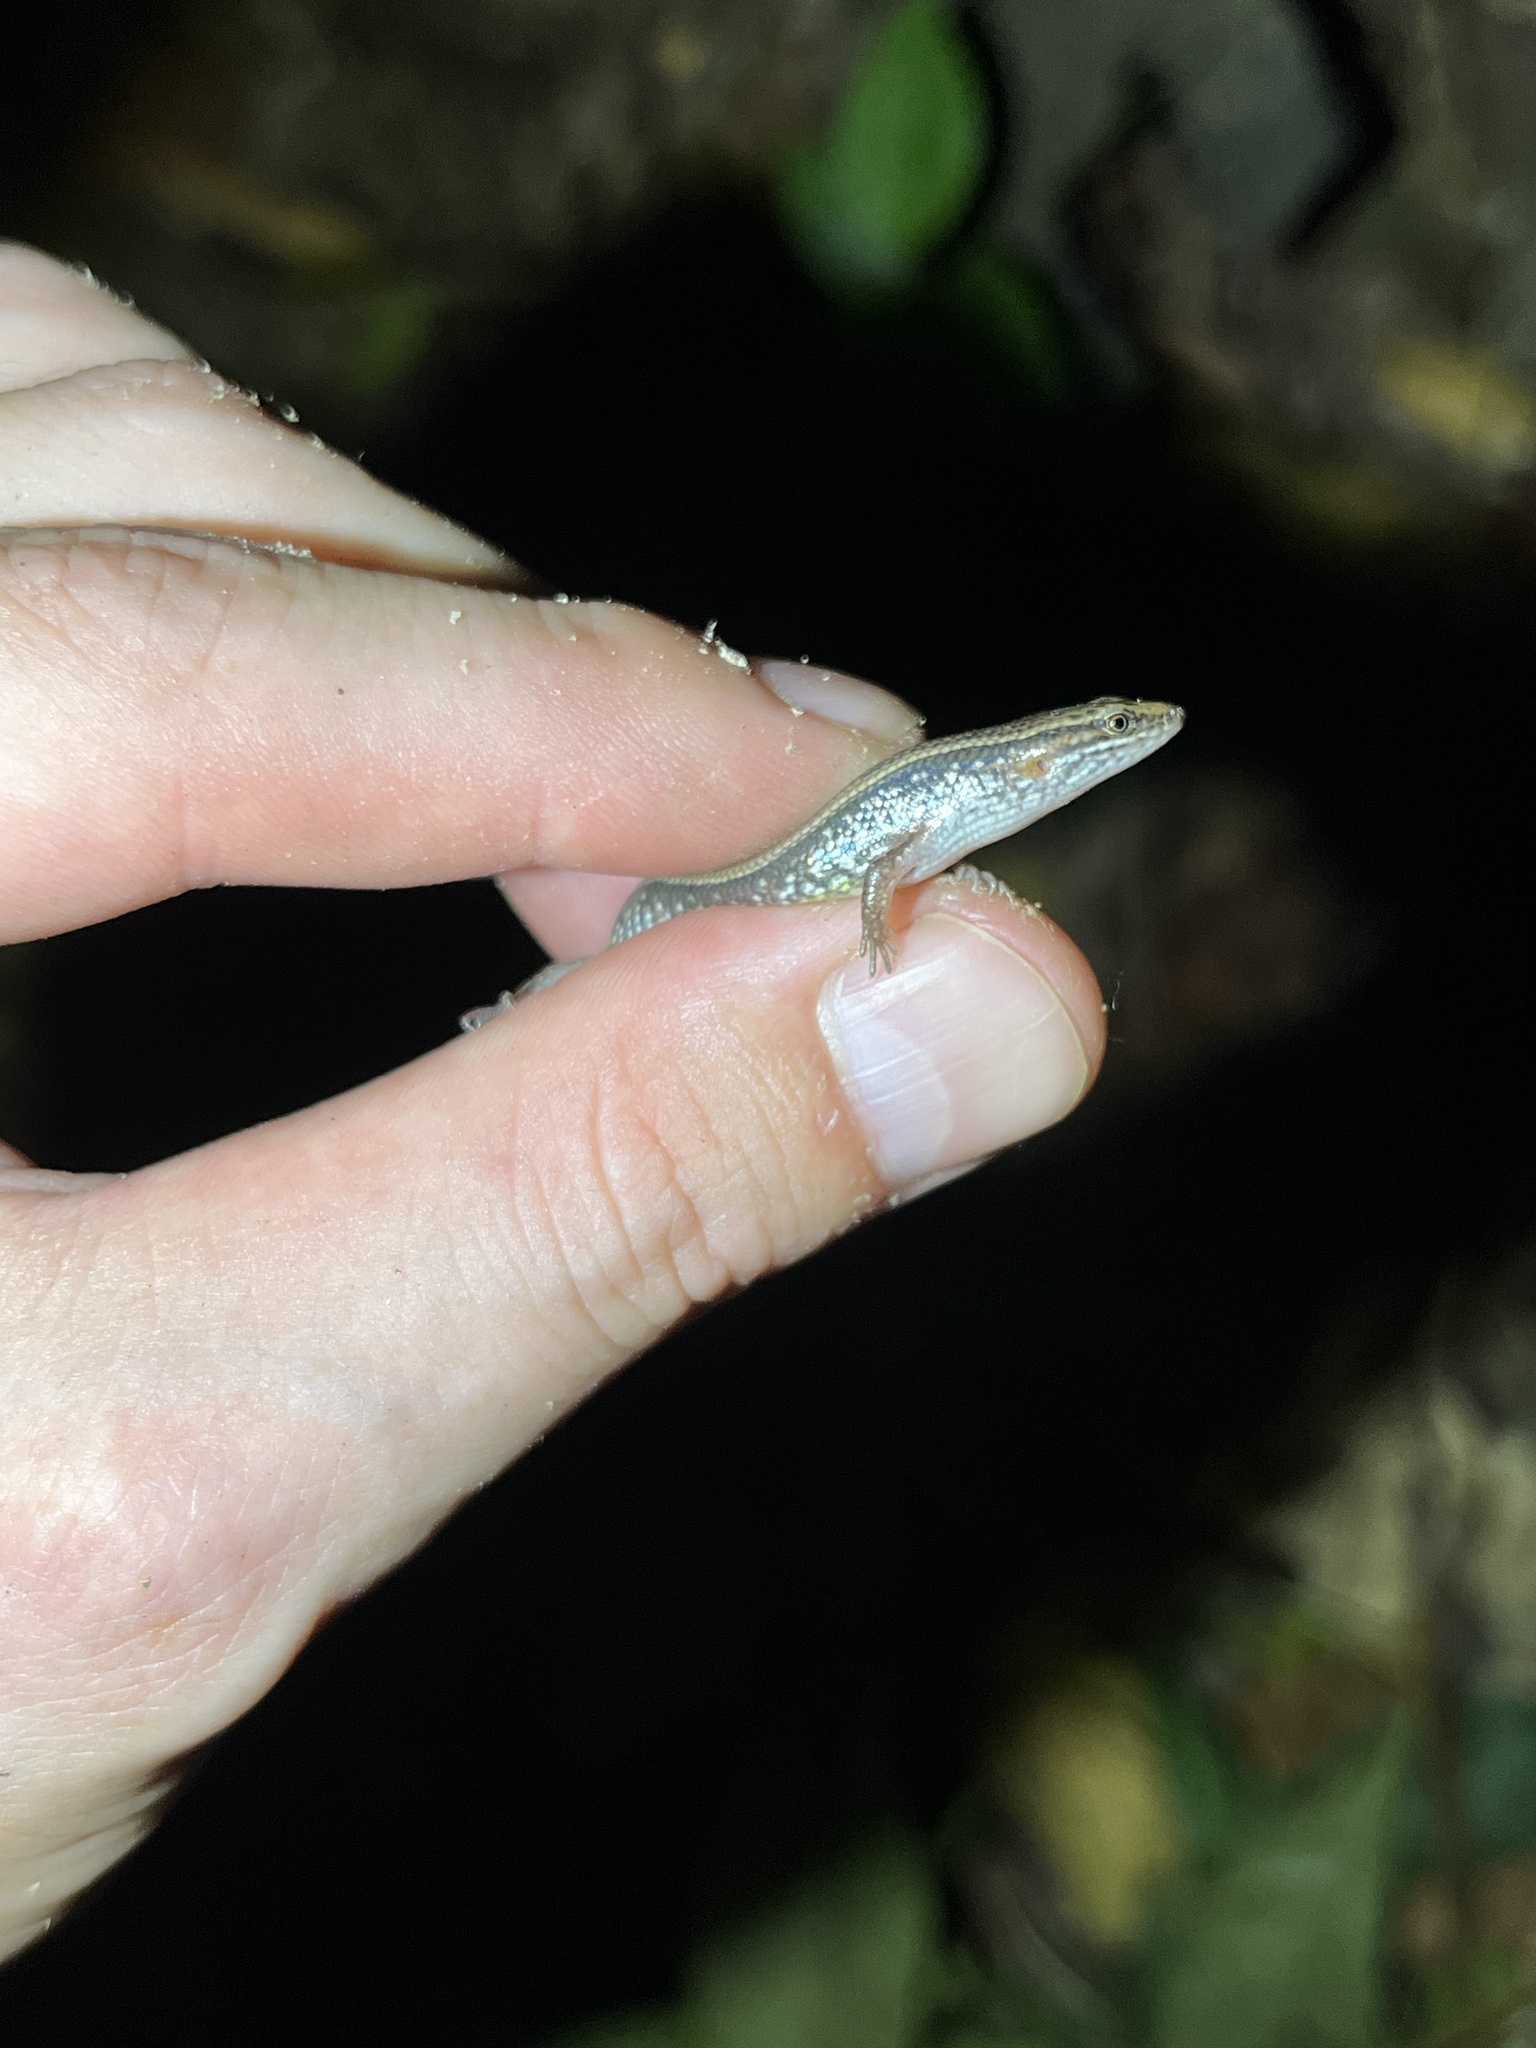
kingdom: Animalia
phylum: Chordata
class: Squamata
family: Scincidae
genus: Subdoluseps
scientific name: Subdoluseps bowringii
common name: Christmas island grass-skink
